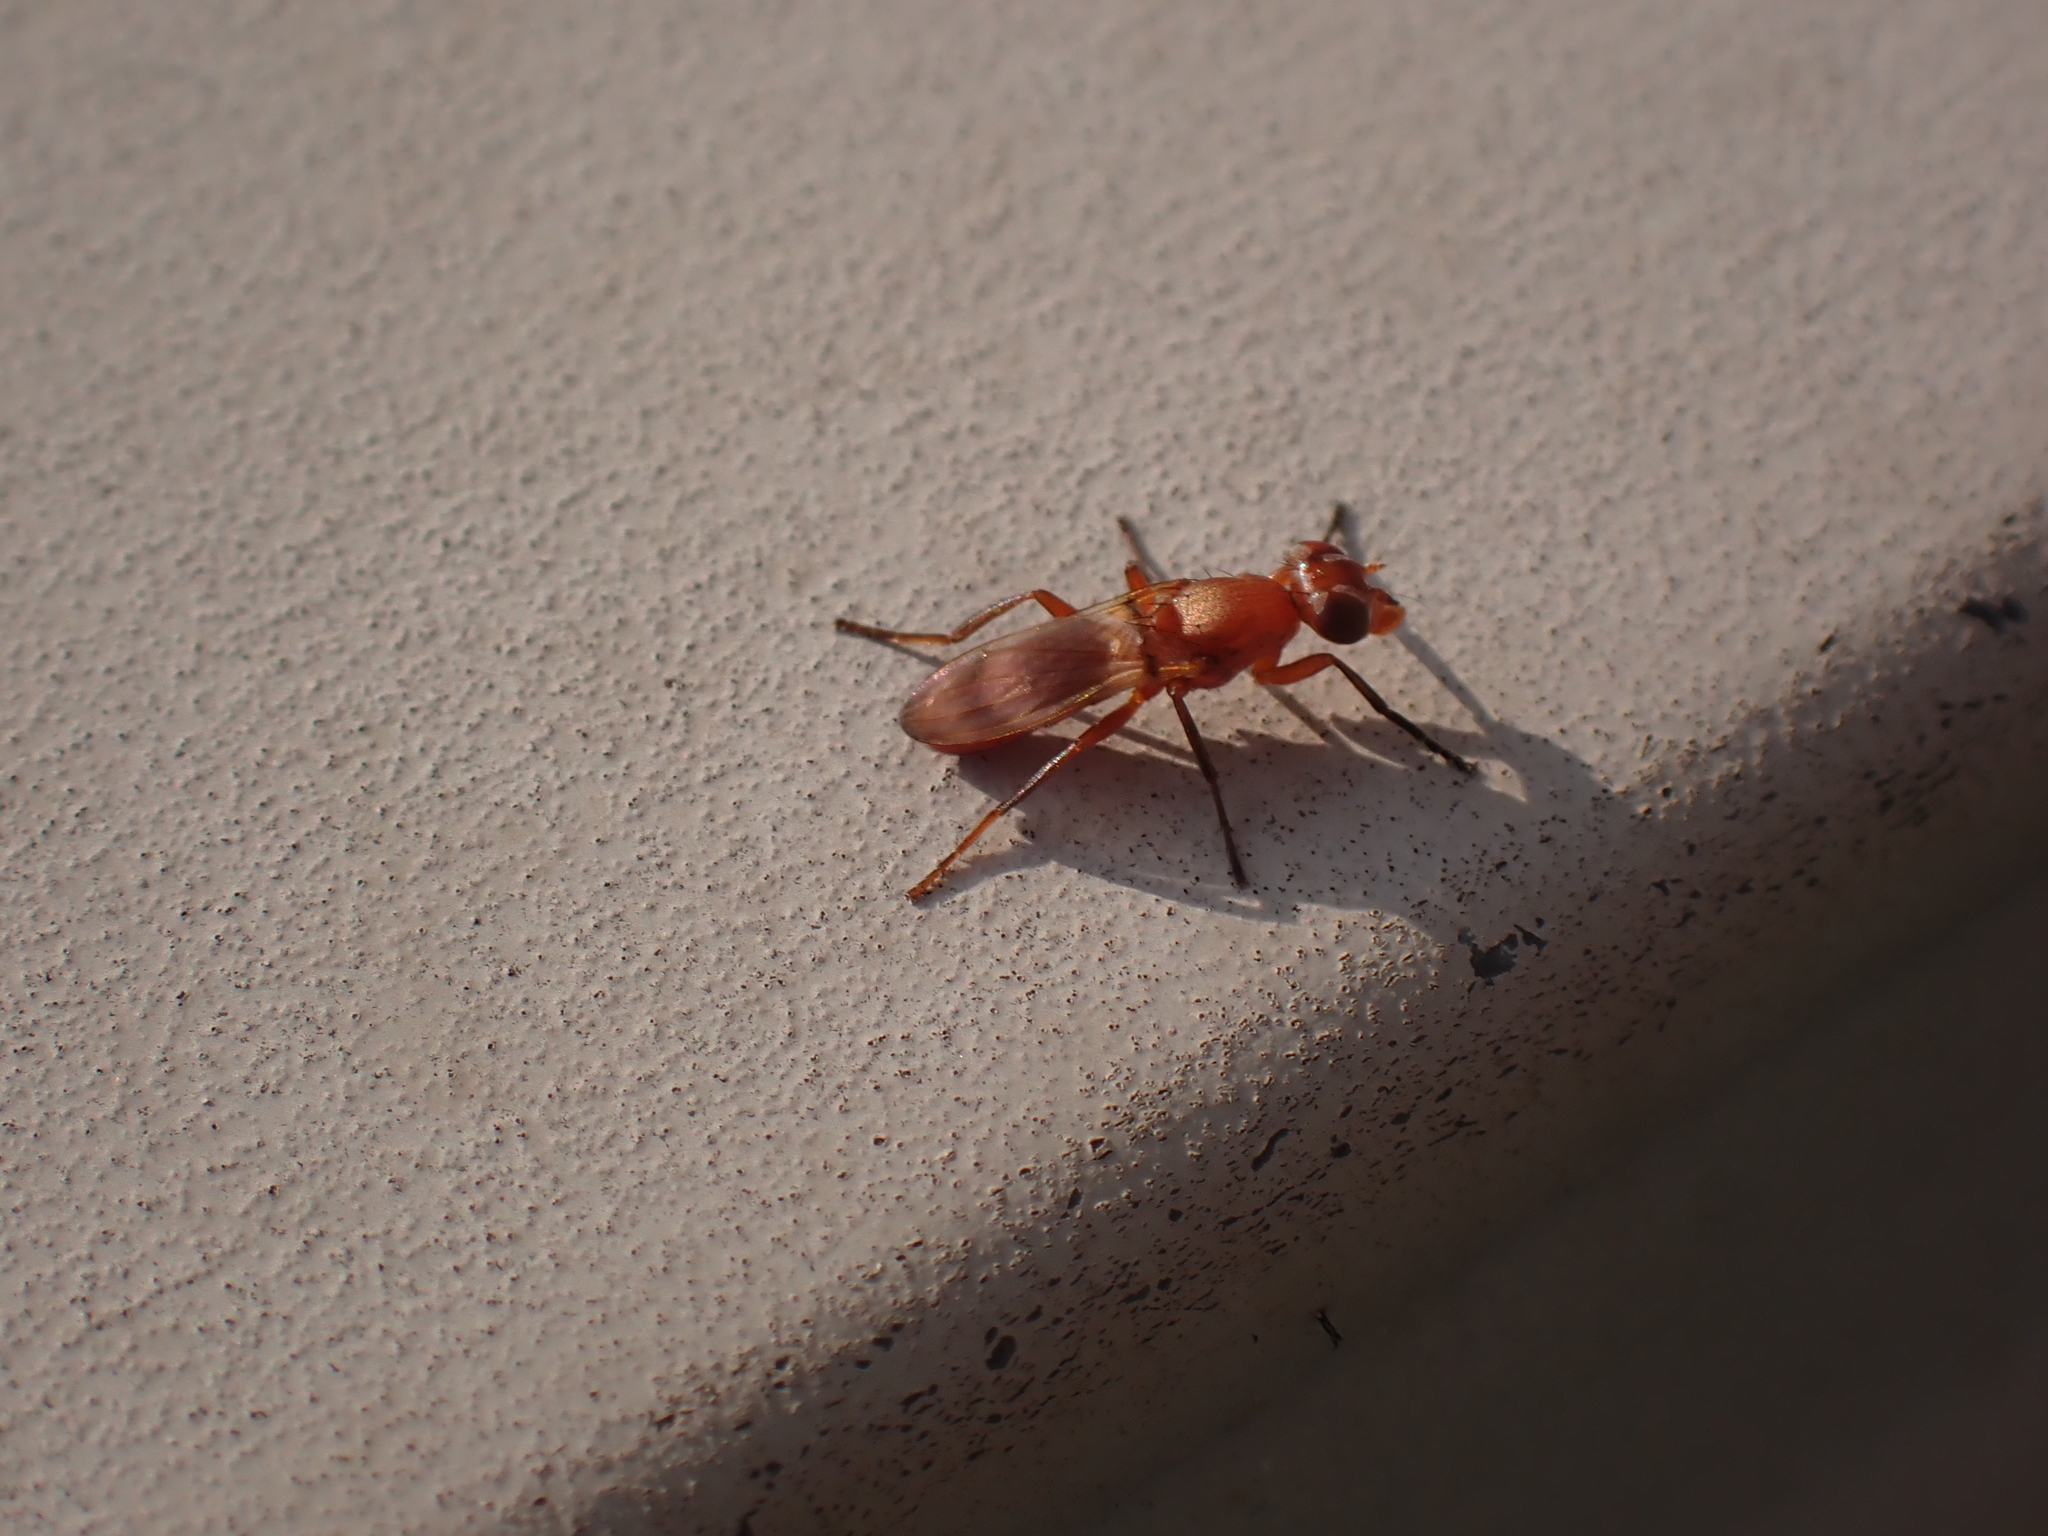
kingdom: Animalia
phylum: Arthropoda
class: Insecta
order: Diptera
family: Ulidiidae
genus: Zacompsia
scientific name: Zacompsia fulva
